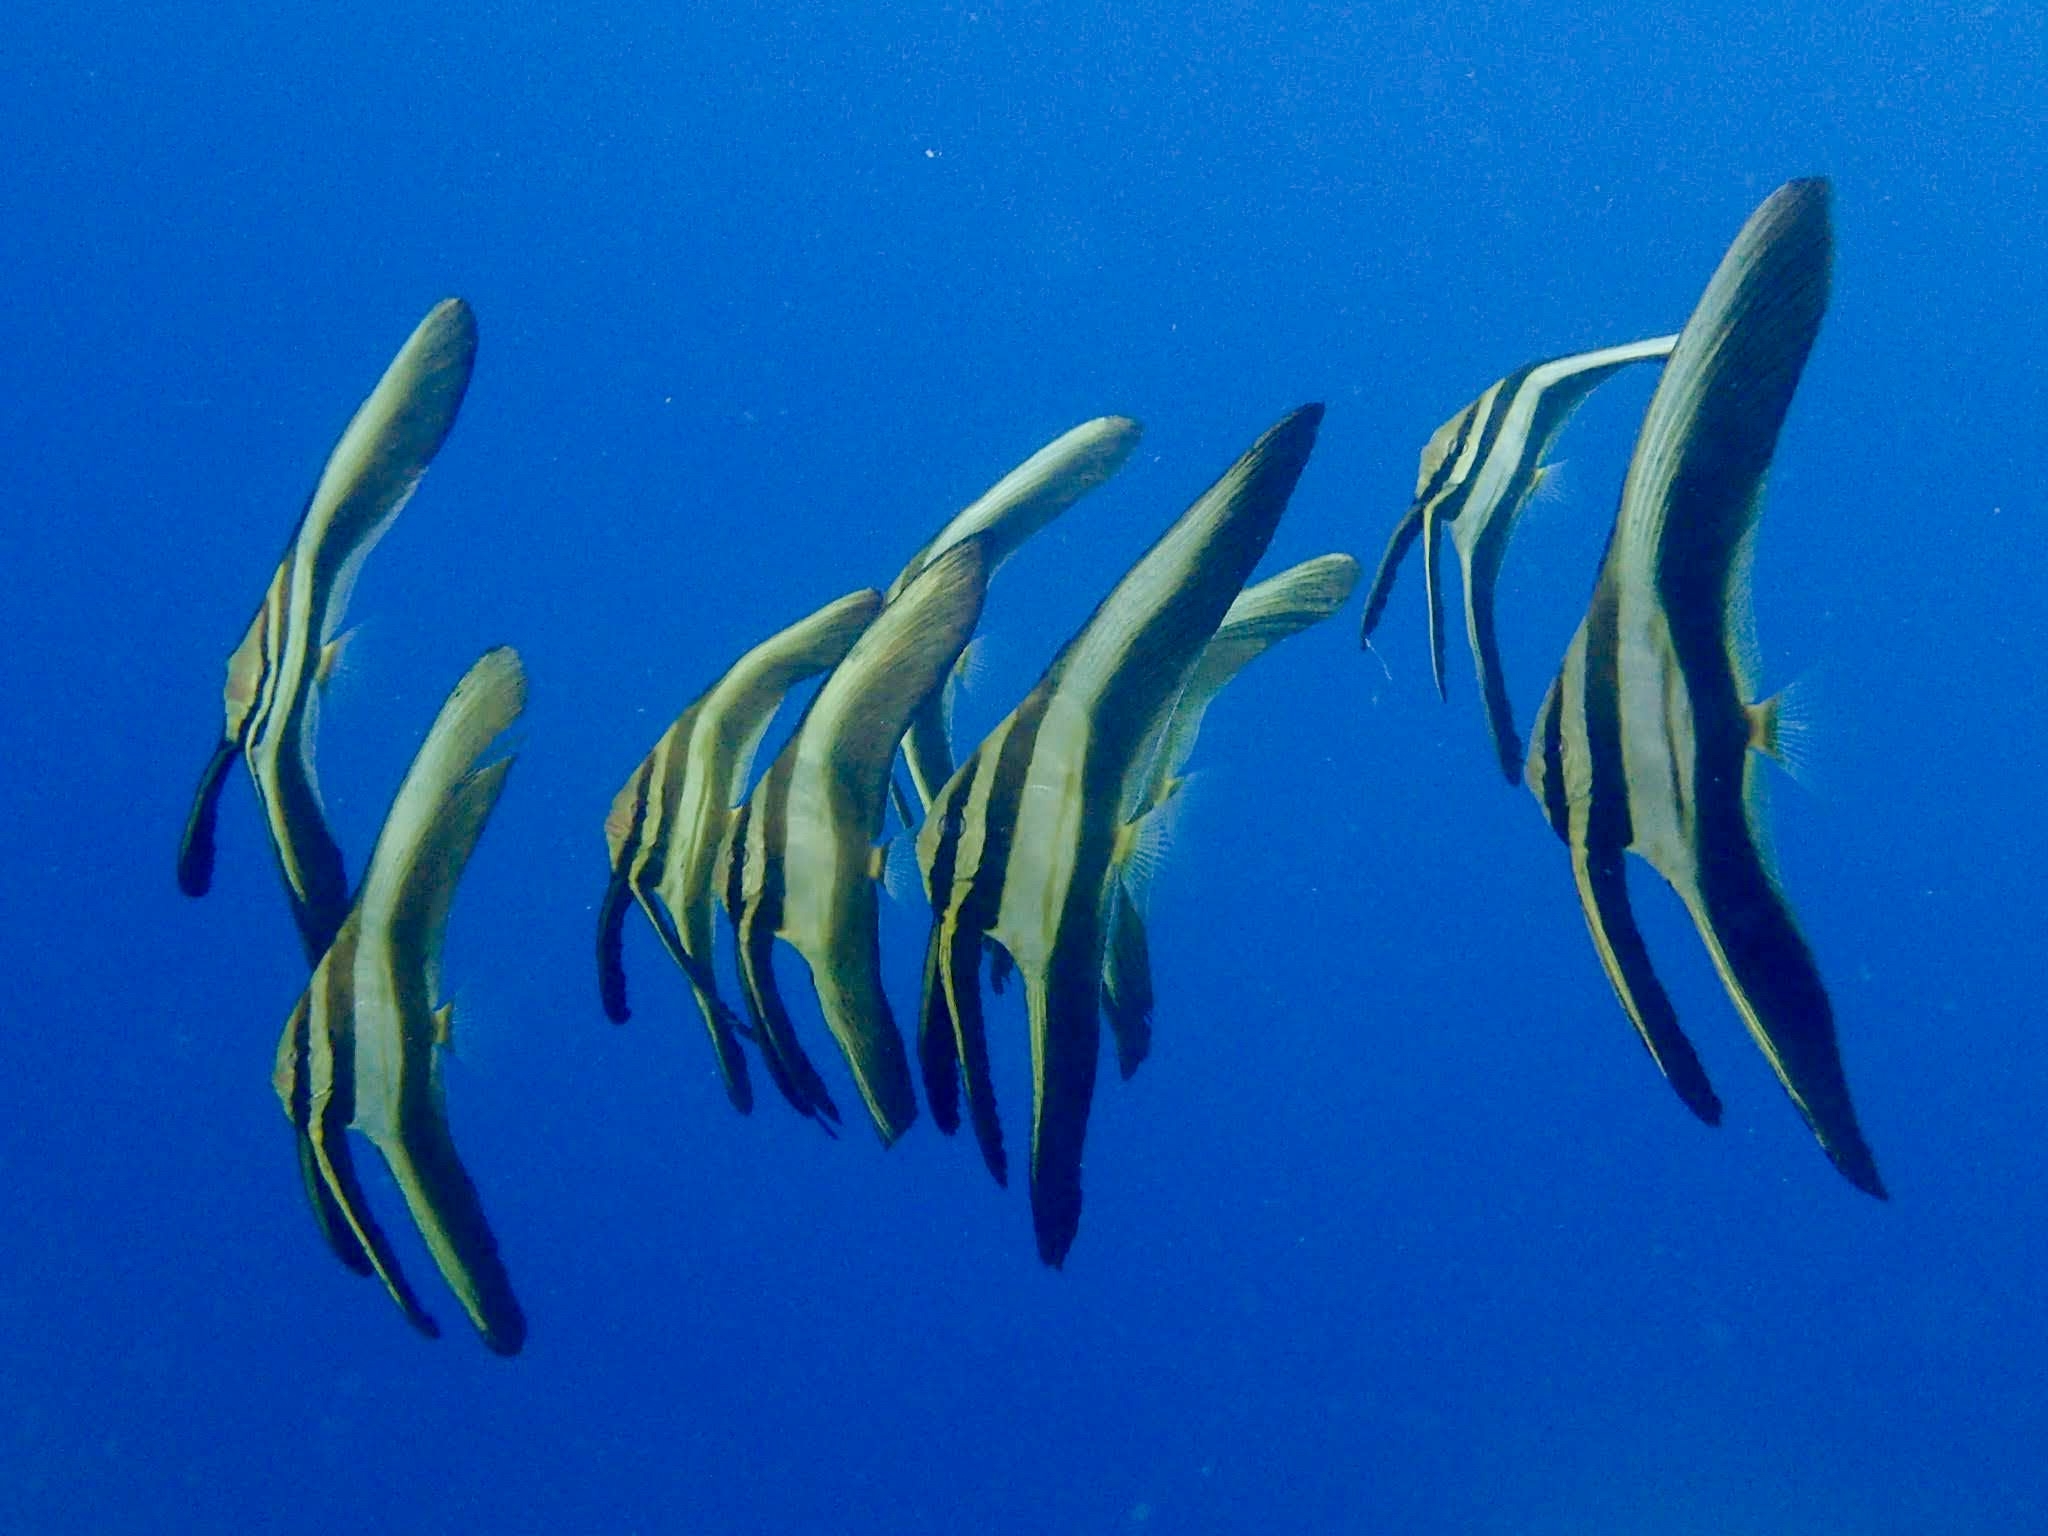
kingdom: Animalia
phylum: Chordata
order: Perciformes
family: Ephippidae
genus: Platax
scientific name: Platax teira
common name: Longfin baitfish
